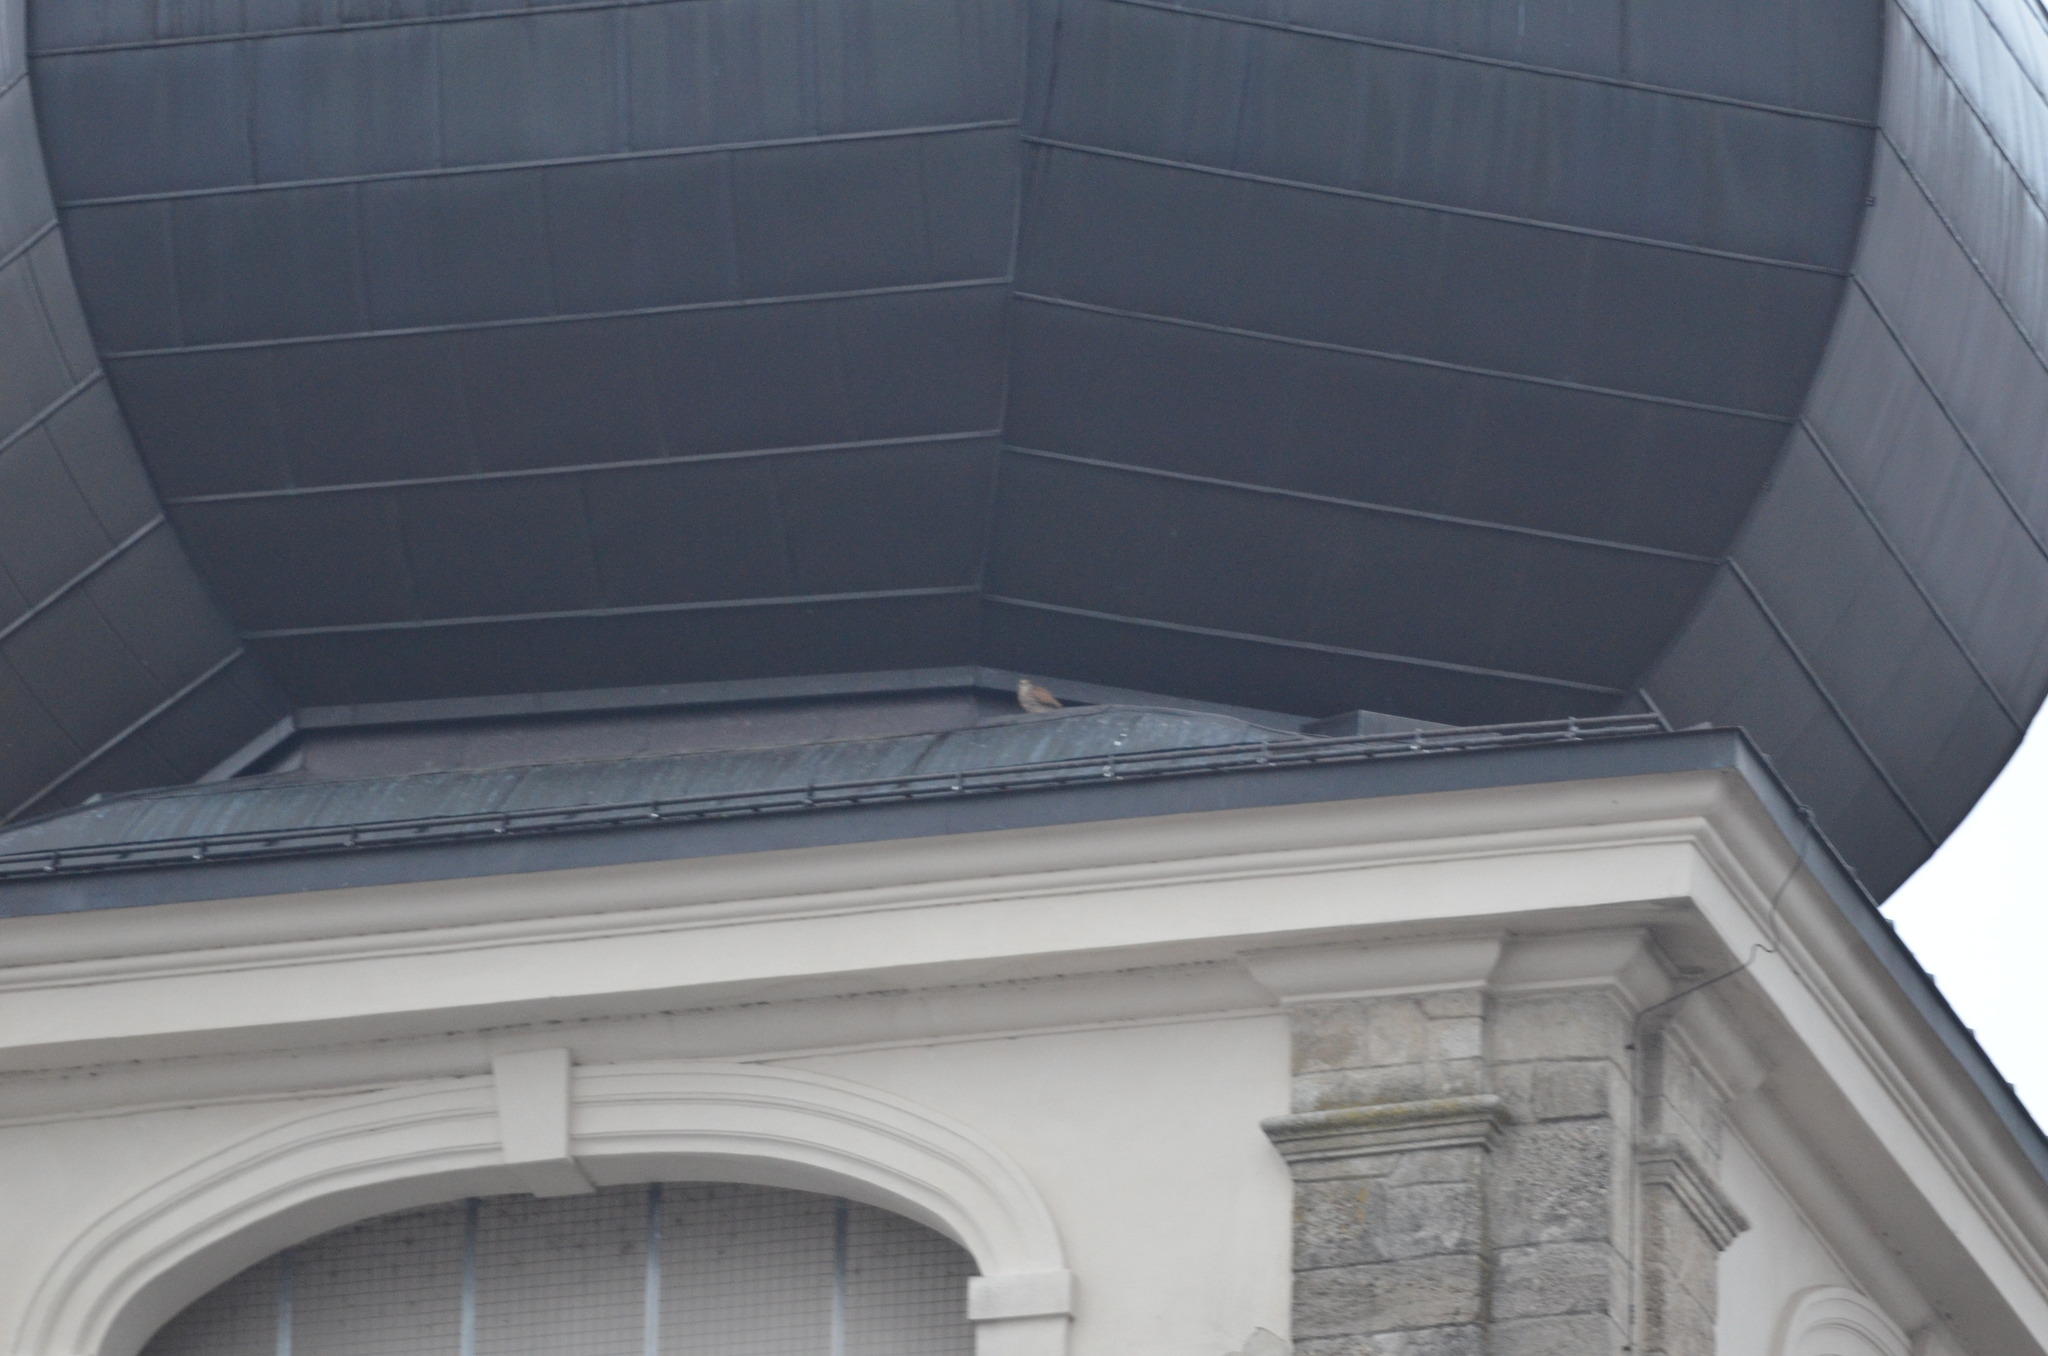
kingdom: Animalia
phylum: Chordata
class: Aves
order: Falconiformes
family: Falconidae
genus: Falco
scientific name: Falco tinnunculus
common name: Common kestrel
